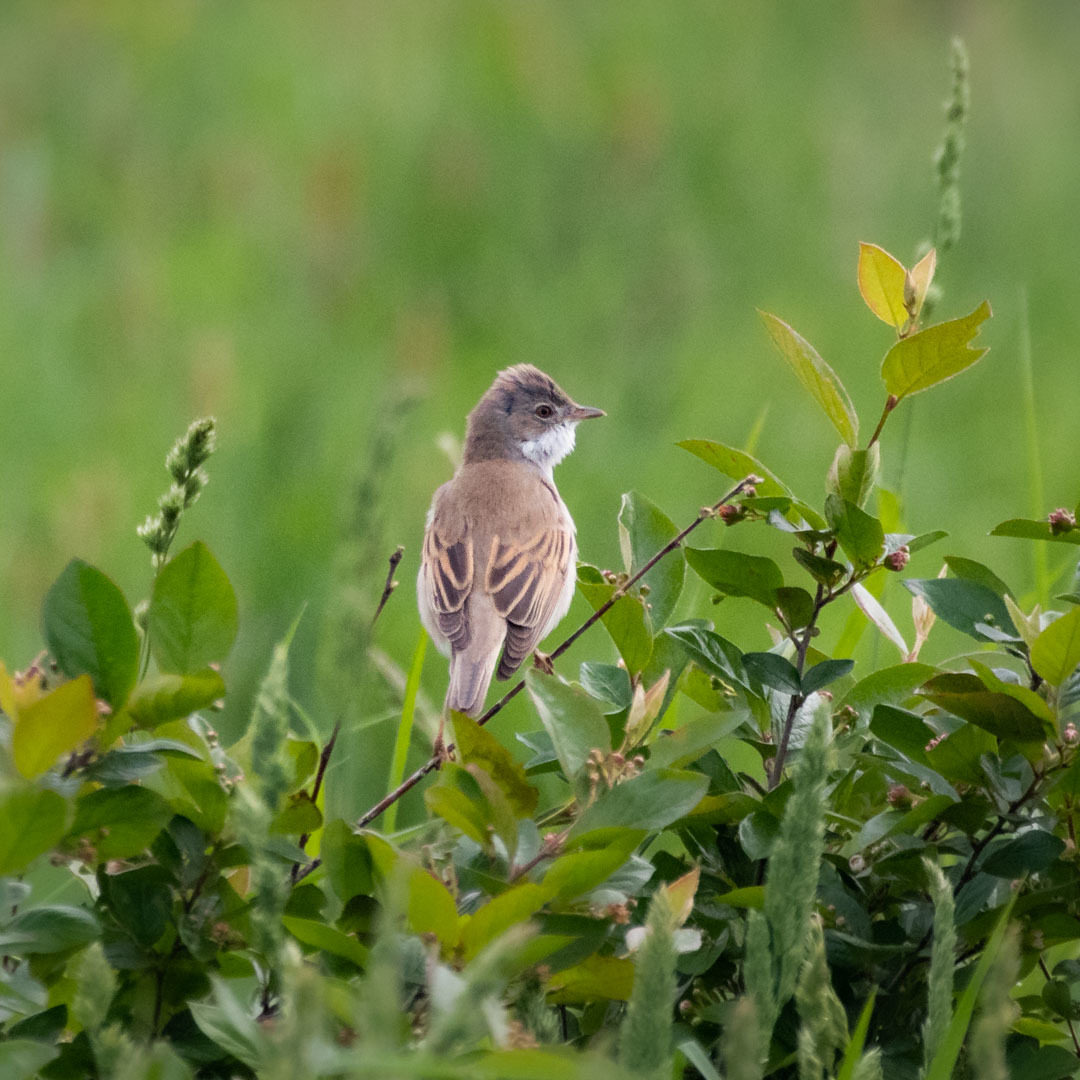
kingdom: Animalia
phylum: Chordata
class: Aves
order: Passeriformes
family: Sylviidae
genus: Sylvia
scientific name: Sylvia communis
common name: Common whitethroat
